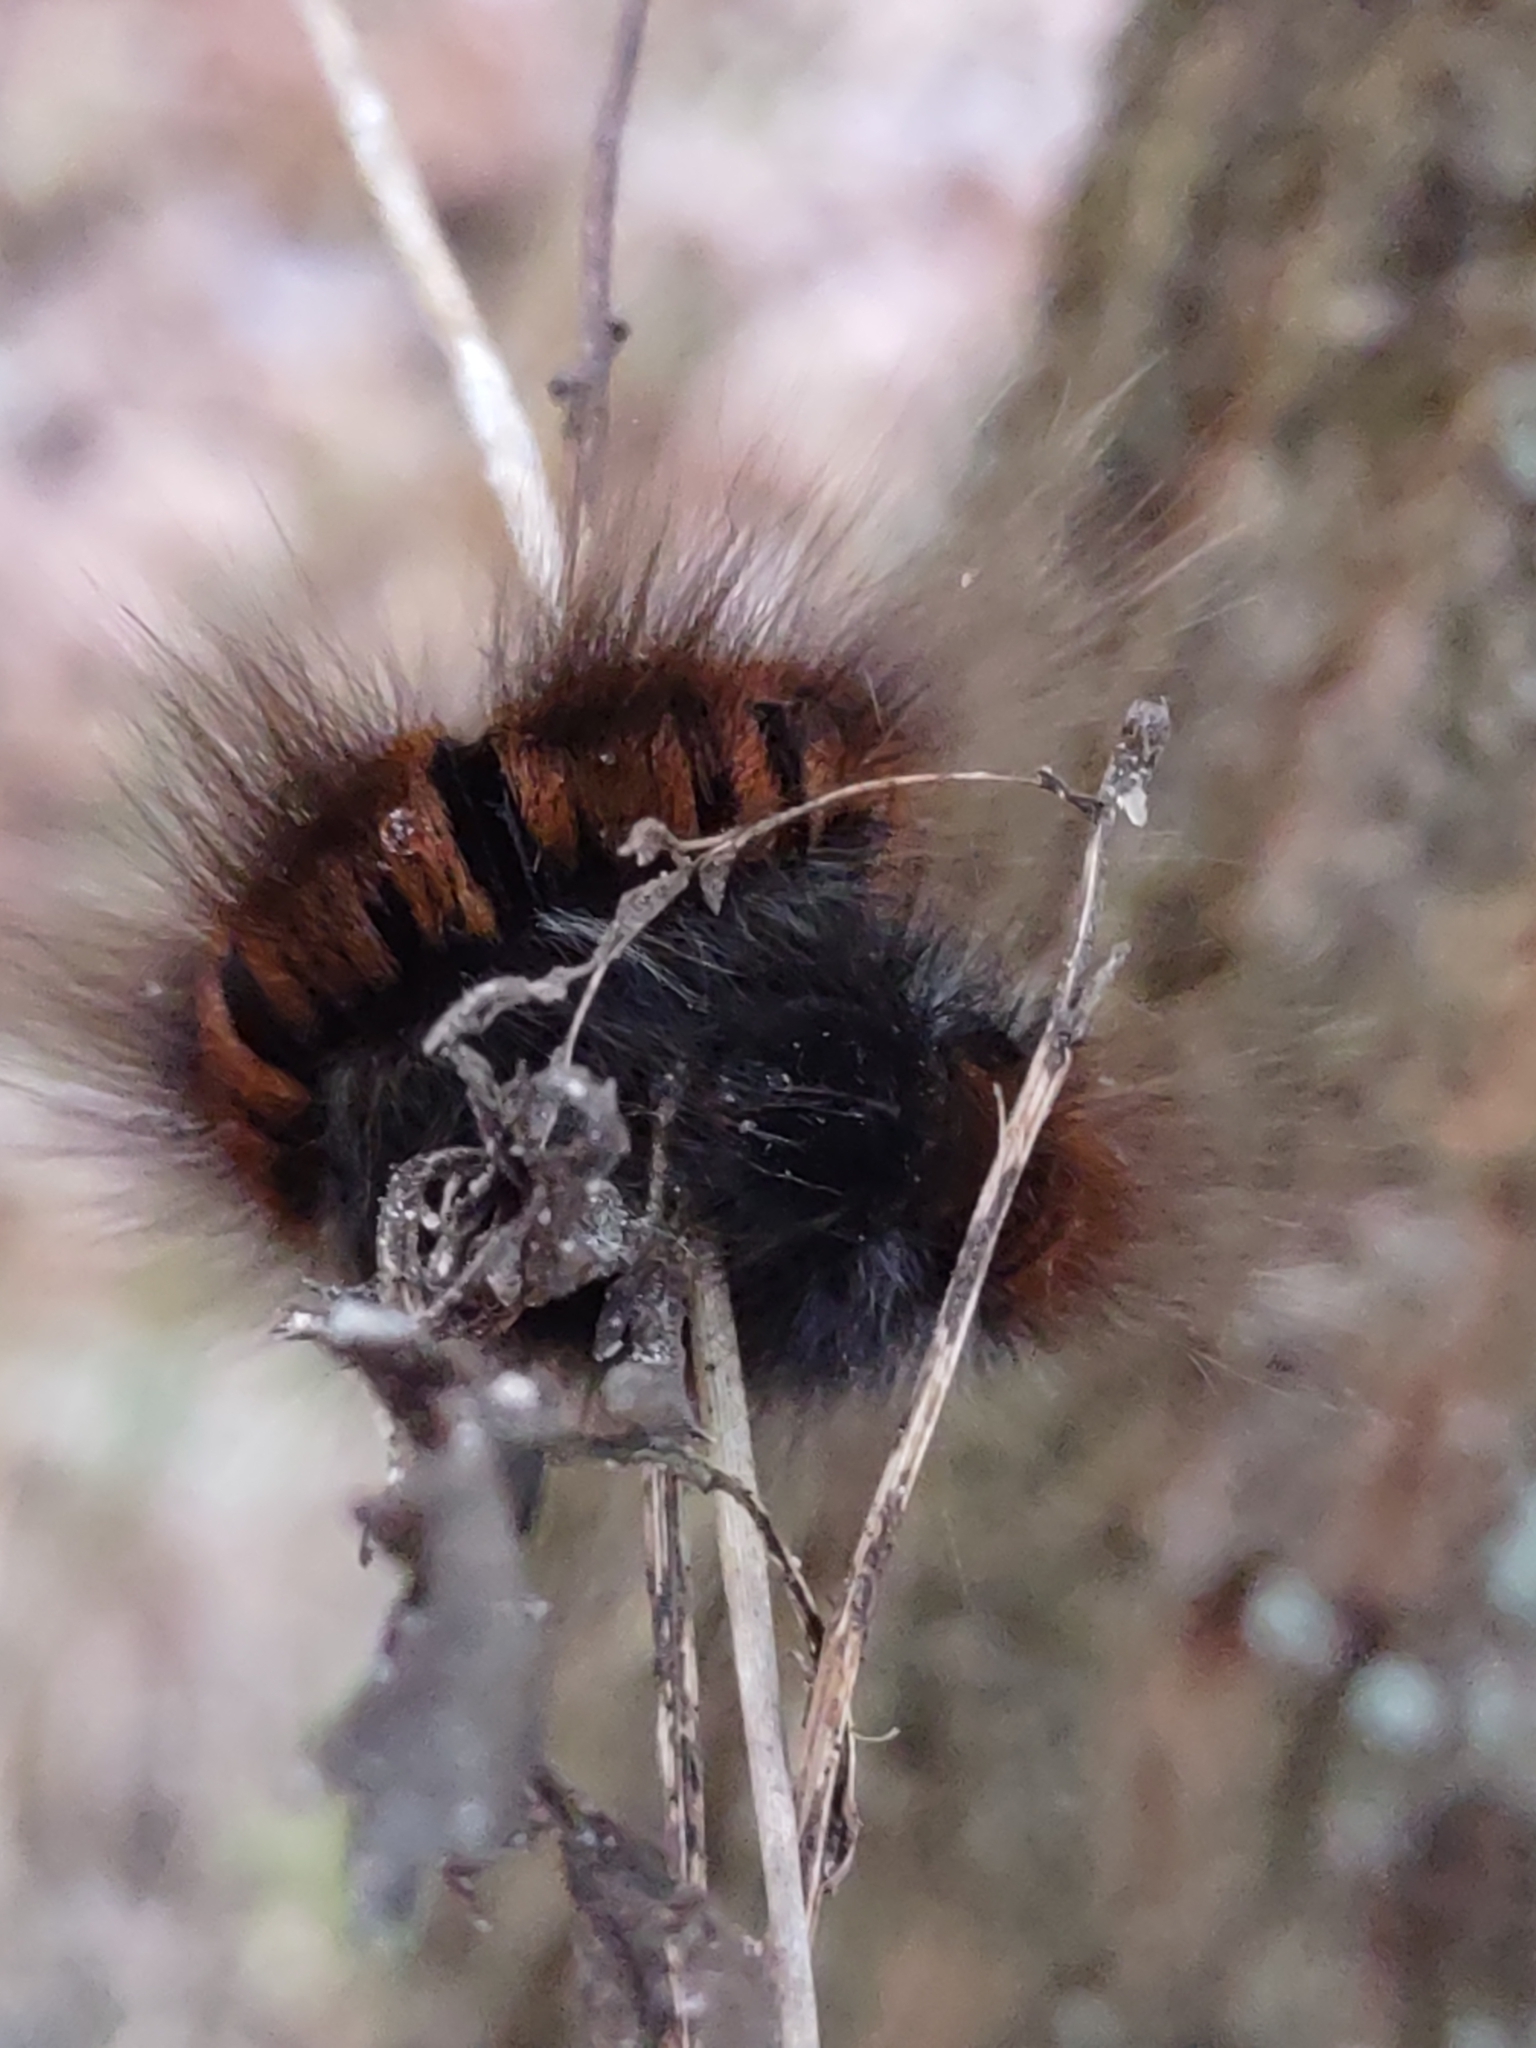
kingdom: Animalia
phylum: Arthropoda
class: Insecta
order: Lepidoptera
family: Lasiocampidae
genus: Macrothylacia
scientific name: Macrothylacia rubi
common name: Fox moth
